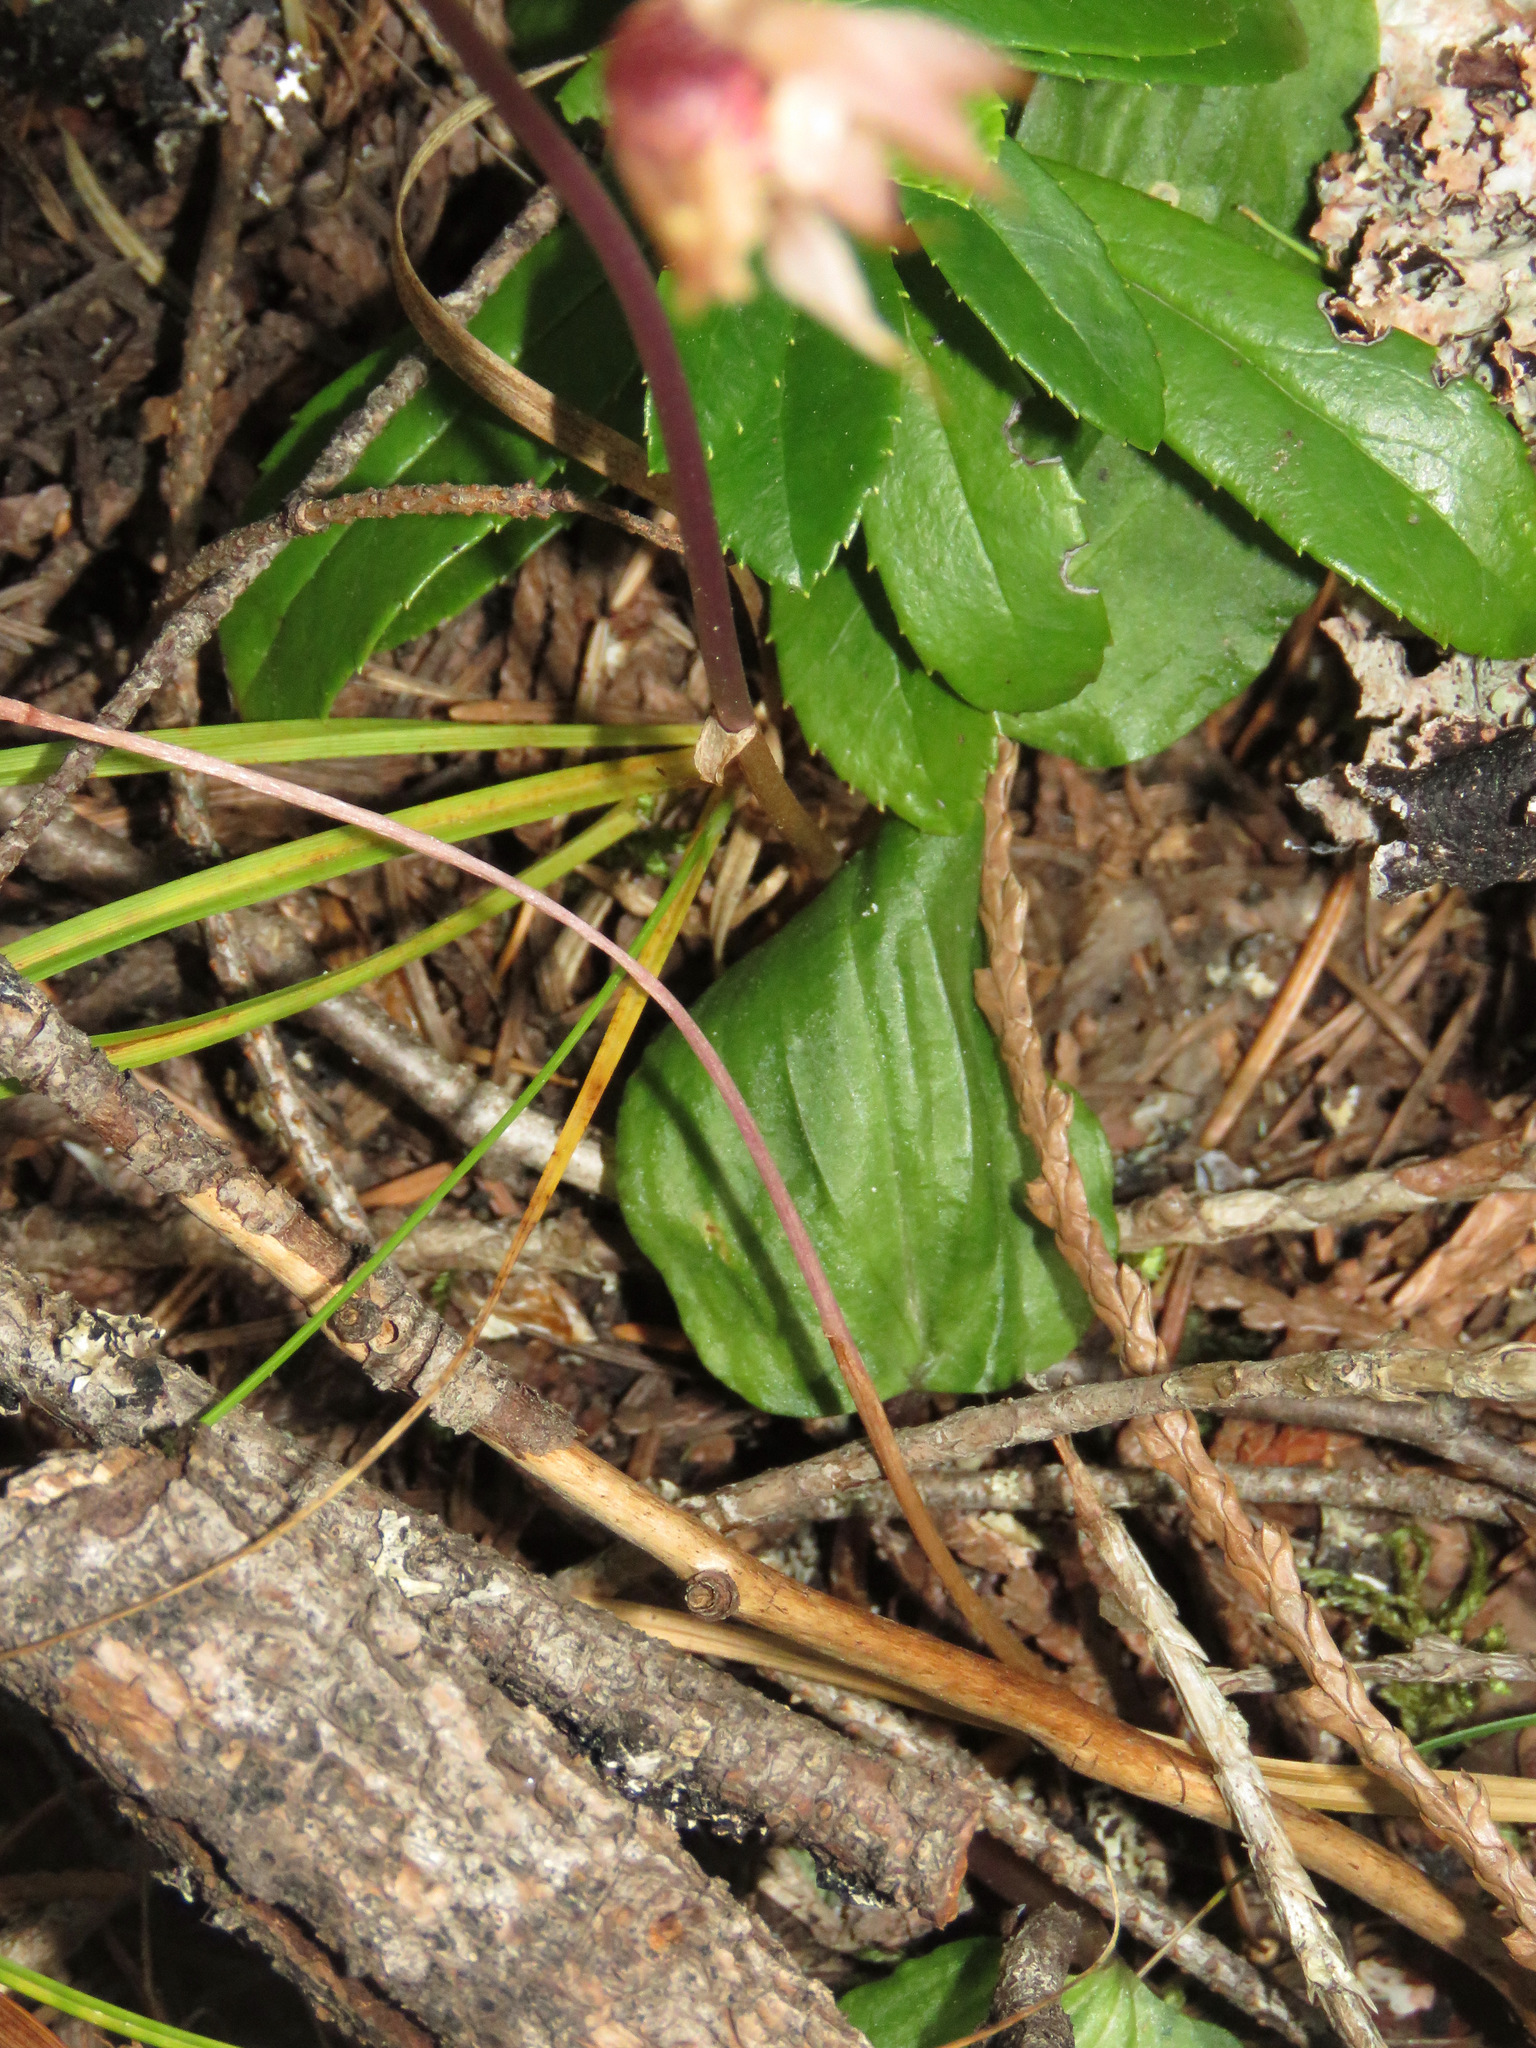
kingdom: Plantae
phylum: Tracheophyta
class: Liliopsida
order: Asparagales
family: Orchidaceae
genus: Calypso
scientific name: Calypso bulbosa
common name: Calypso
